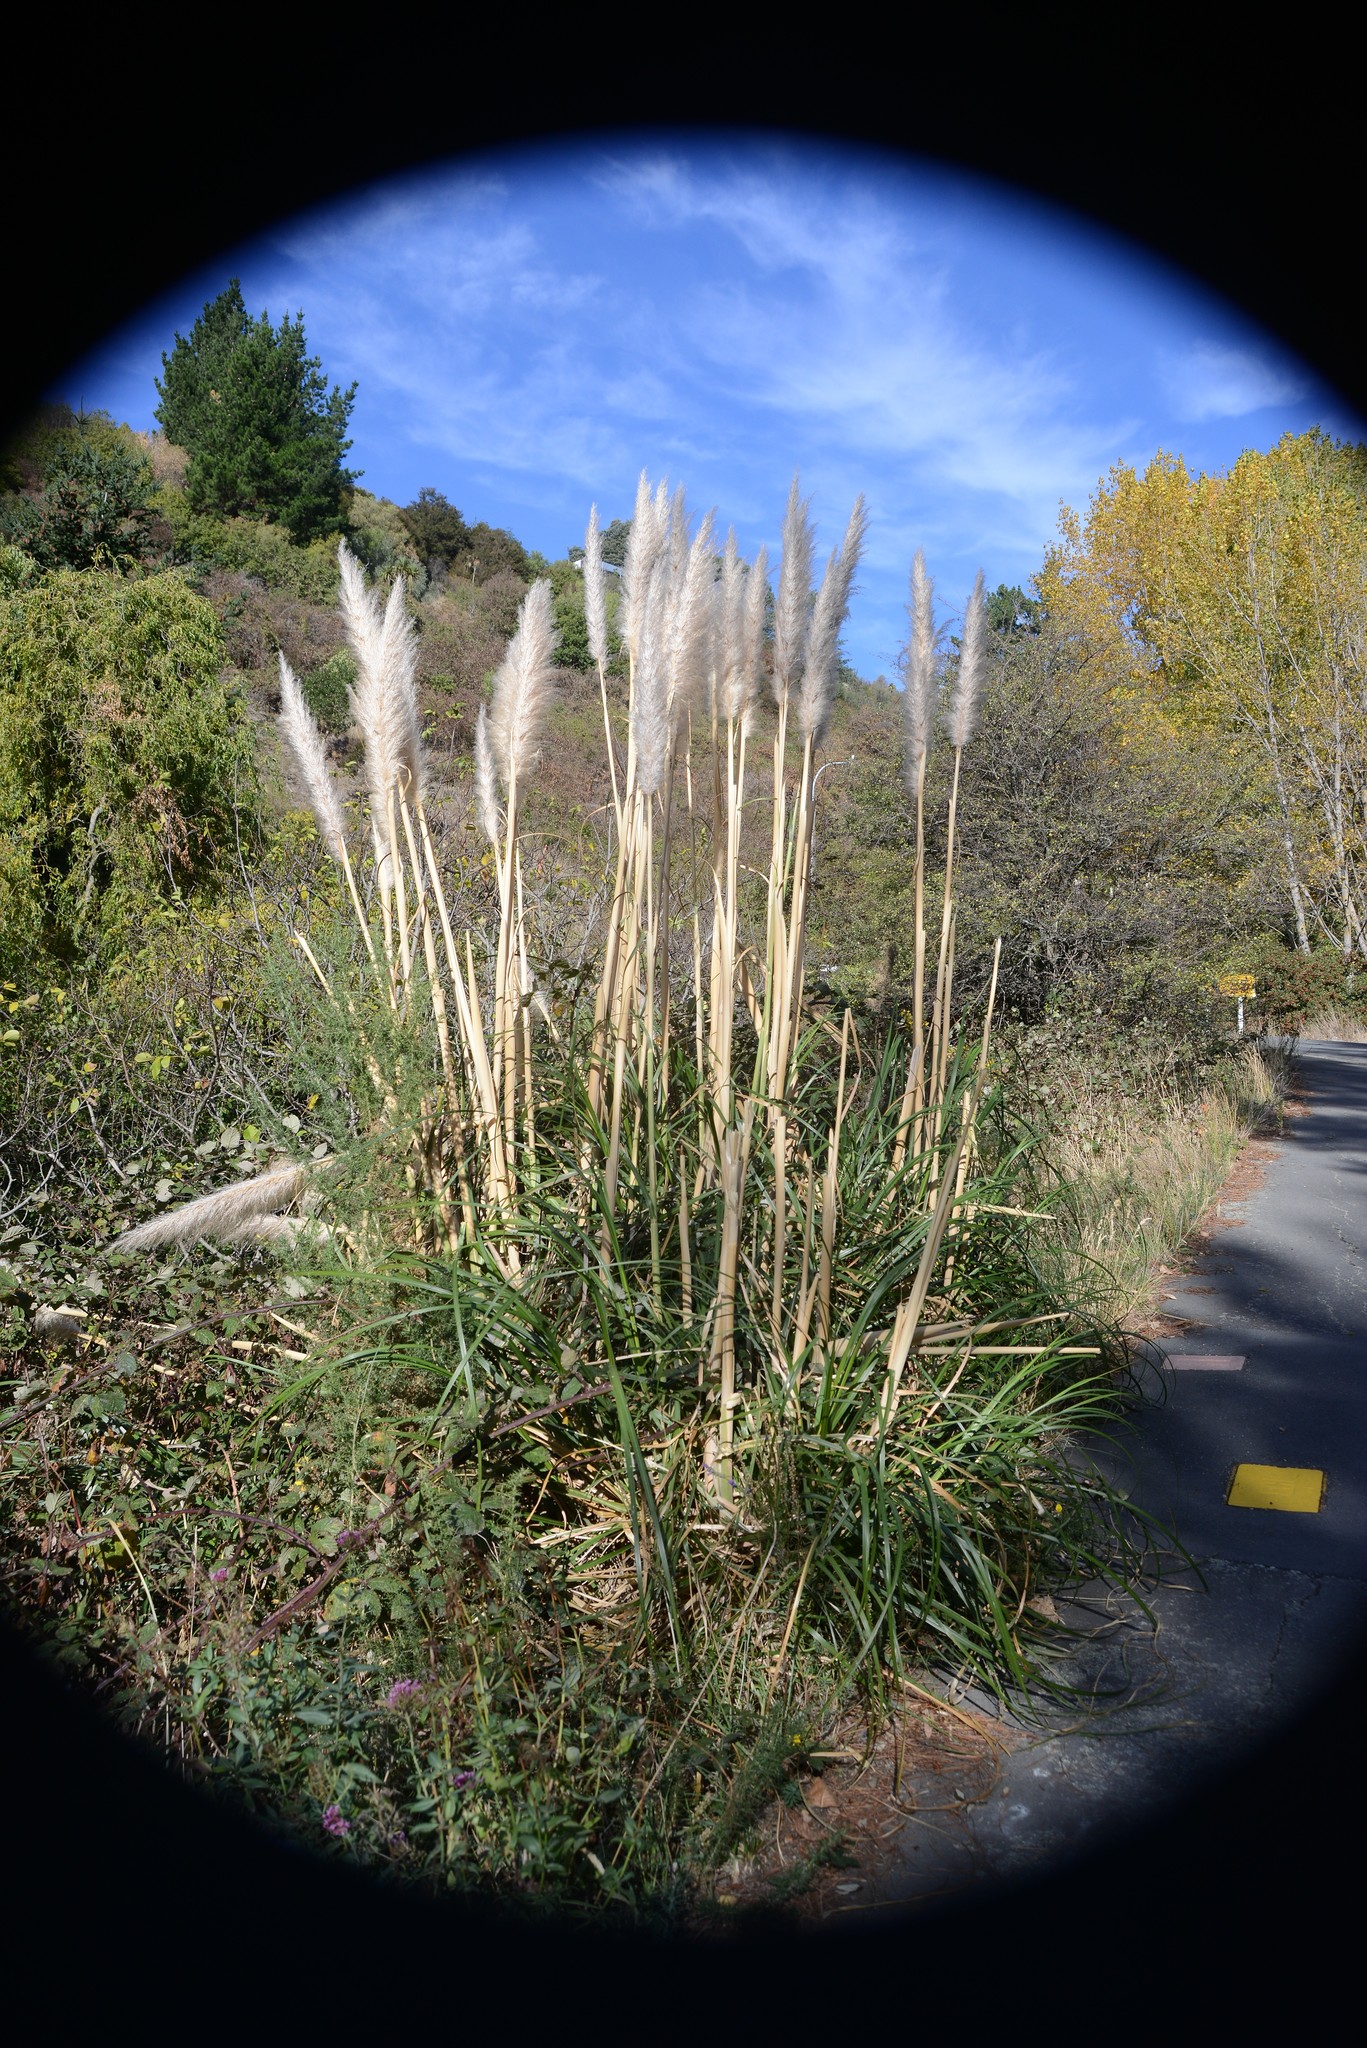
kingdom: Plantae
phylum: Tracheophyta
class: Liliopsida
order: Poales
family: Poaceae
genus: Cortaderia
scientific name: Cortaderia selloana
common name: Uruguayan pampas grass
